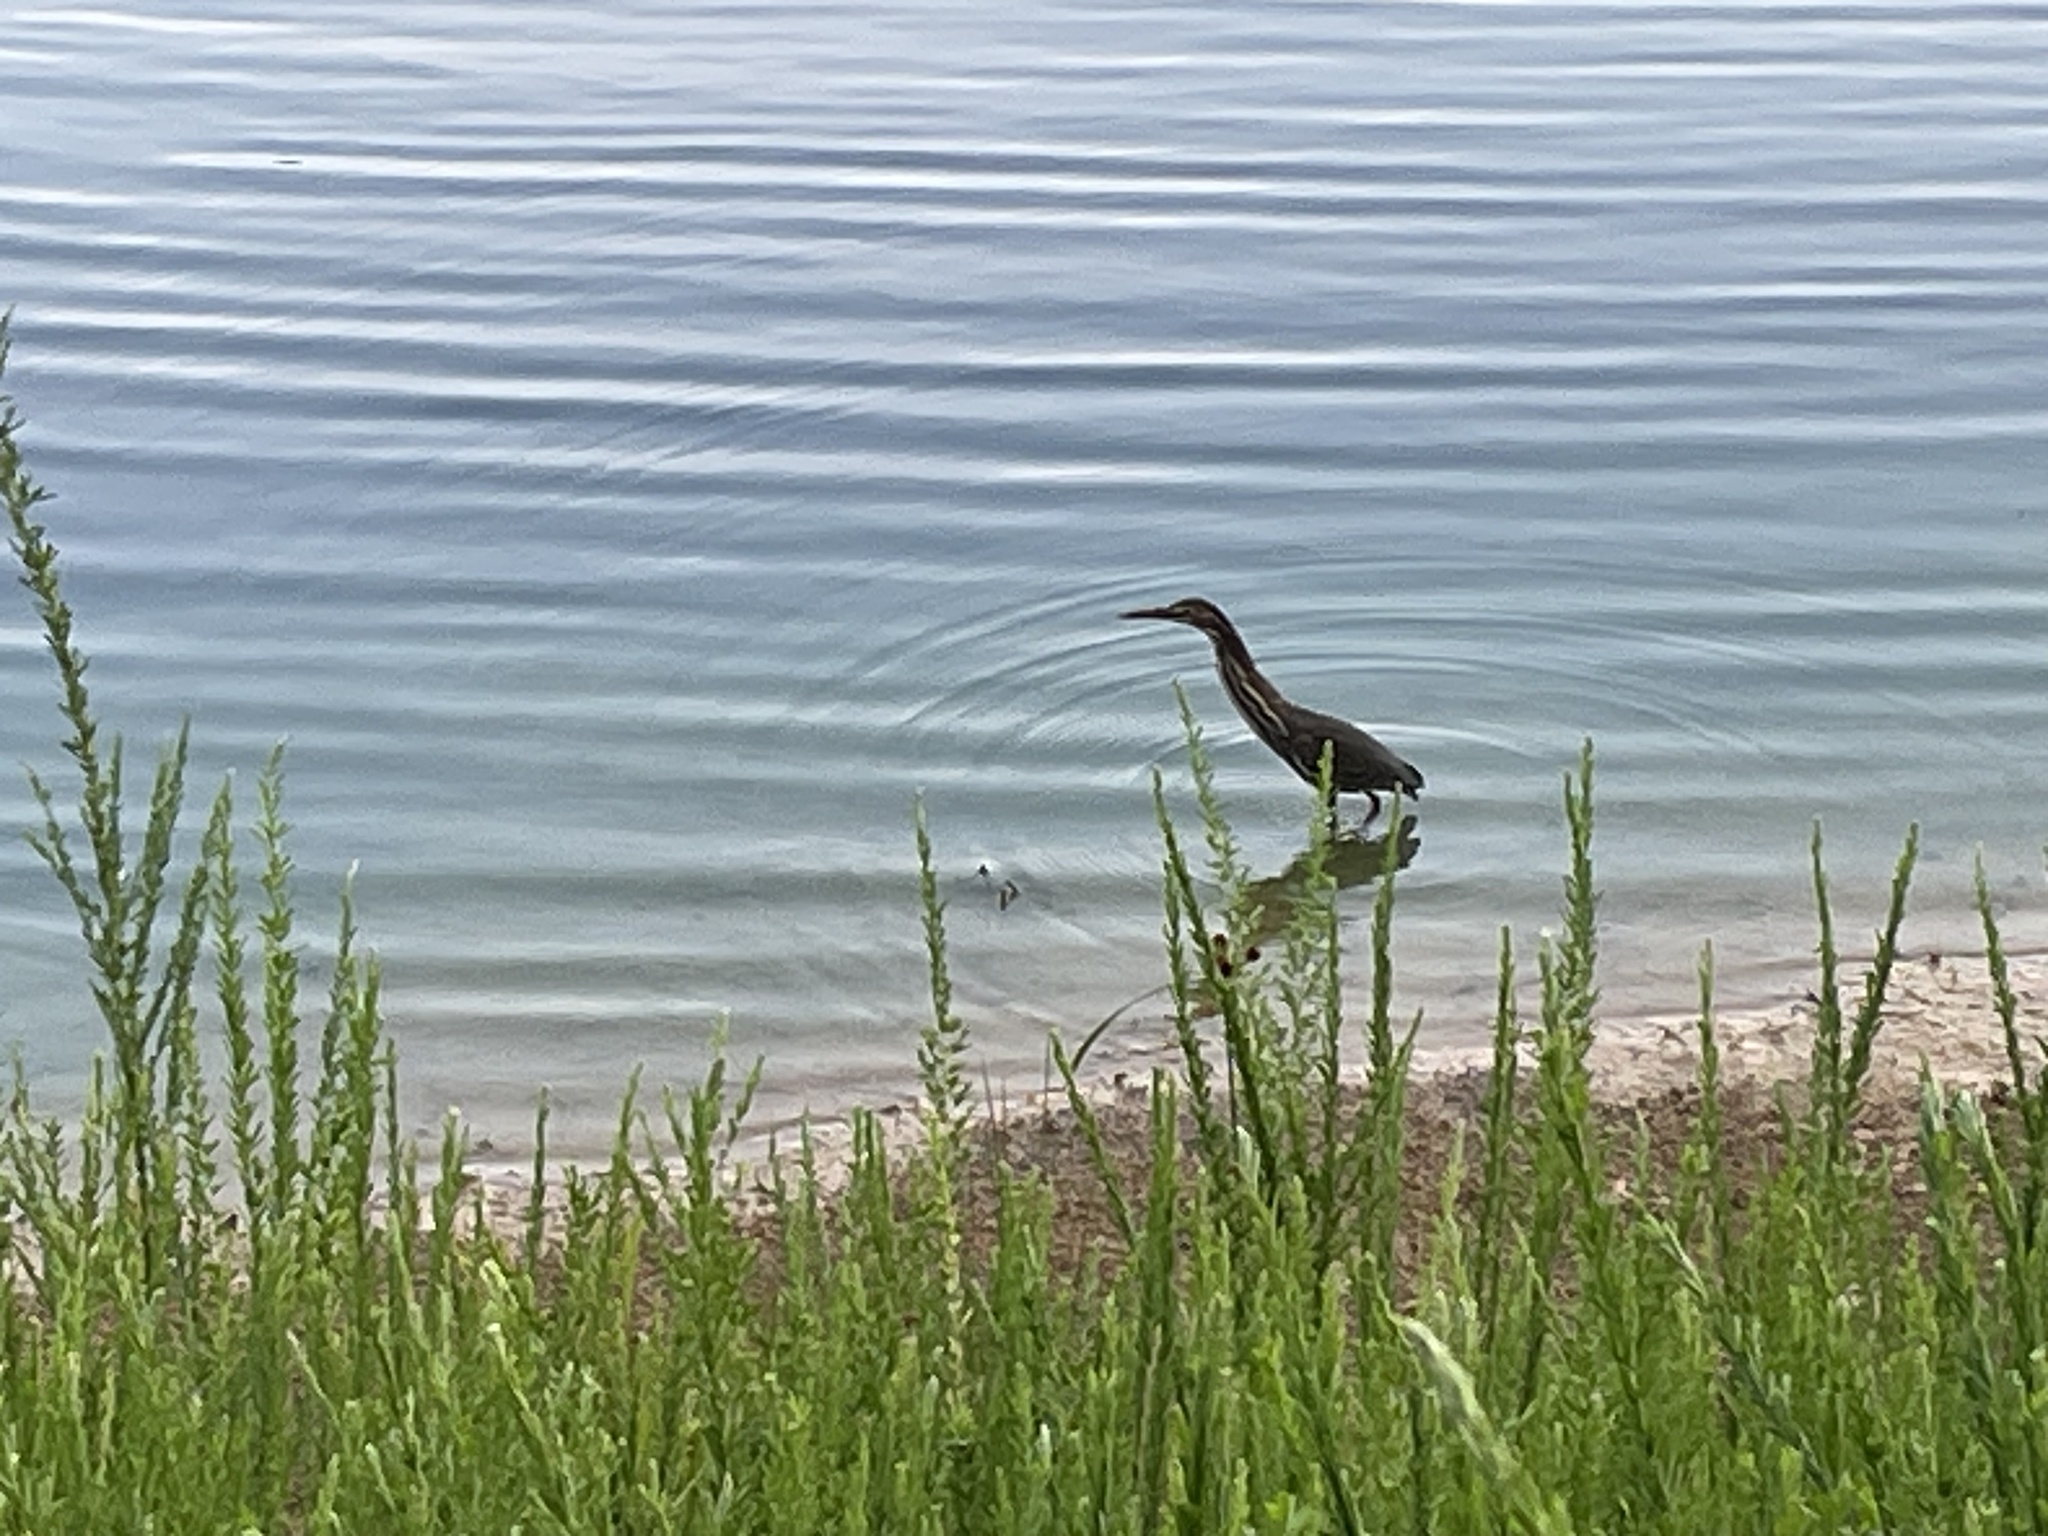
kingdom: Animalia
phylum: Chordata
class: Aves
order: Pelecaniformes
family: Ardeidae
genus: Butorides
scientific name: Butorides virescens
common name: Green heron
